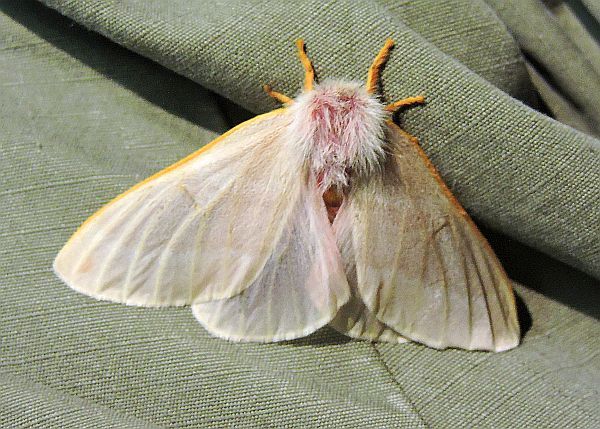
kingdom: Animalia
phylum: Arthropoda
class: Insecta
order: Lepidoptera
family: Saturniidae
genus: Hemileuca
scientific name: Hemileuca hualapai
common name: Hualapai buckmoth
